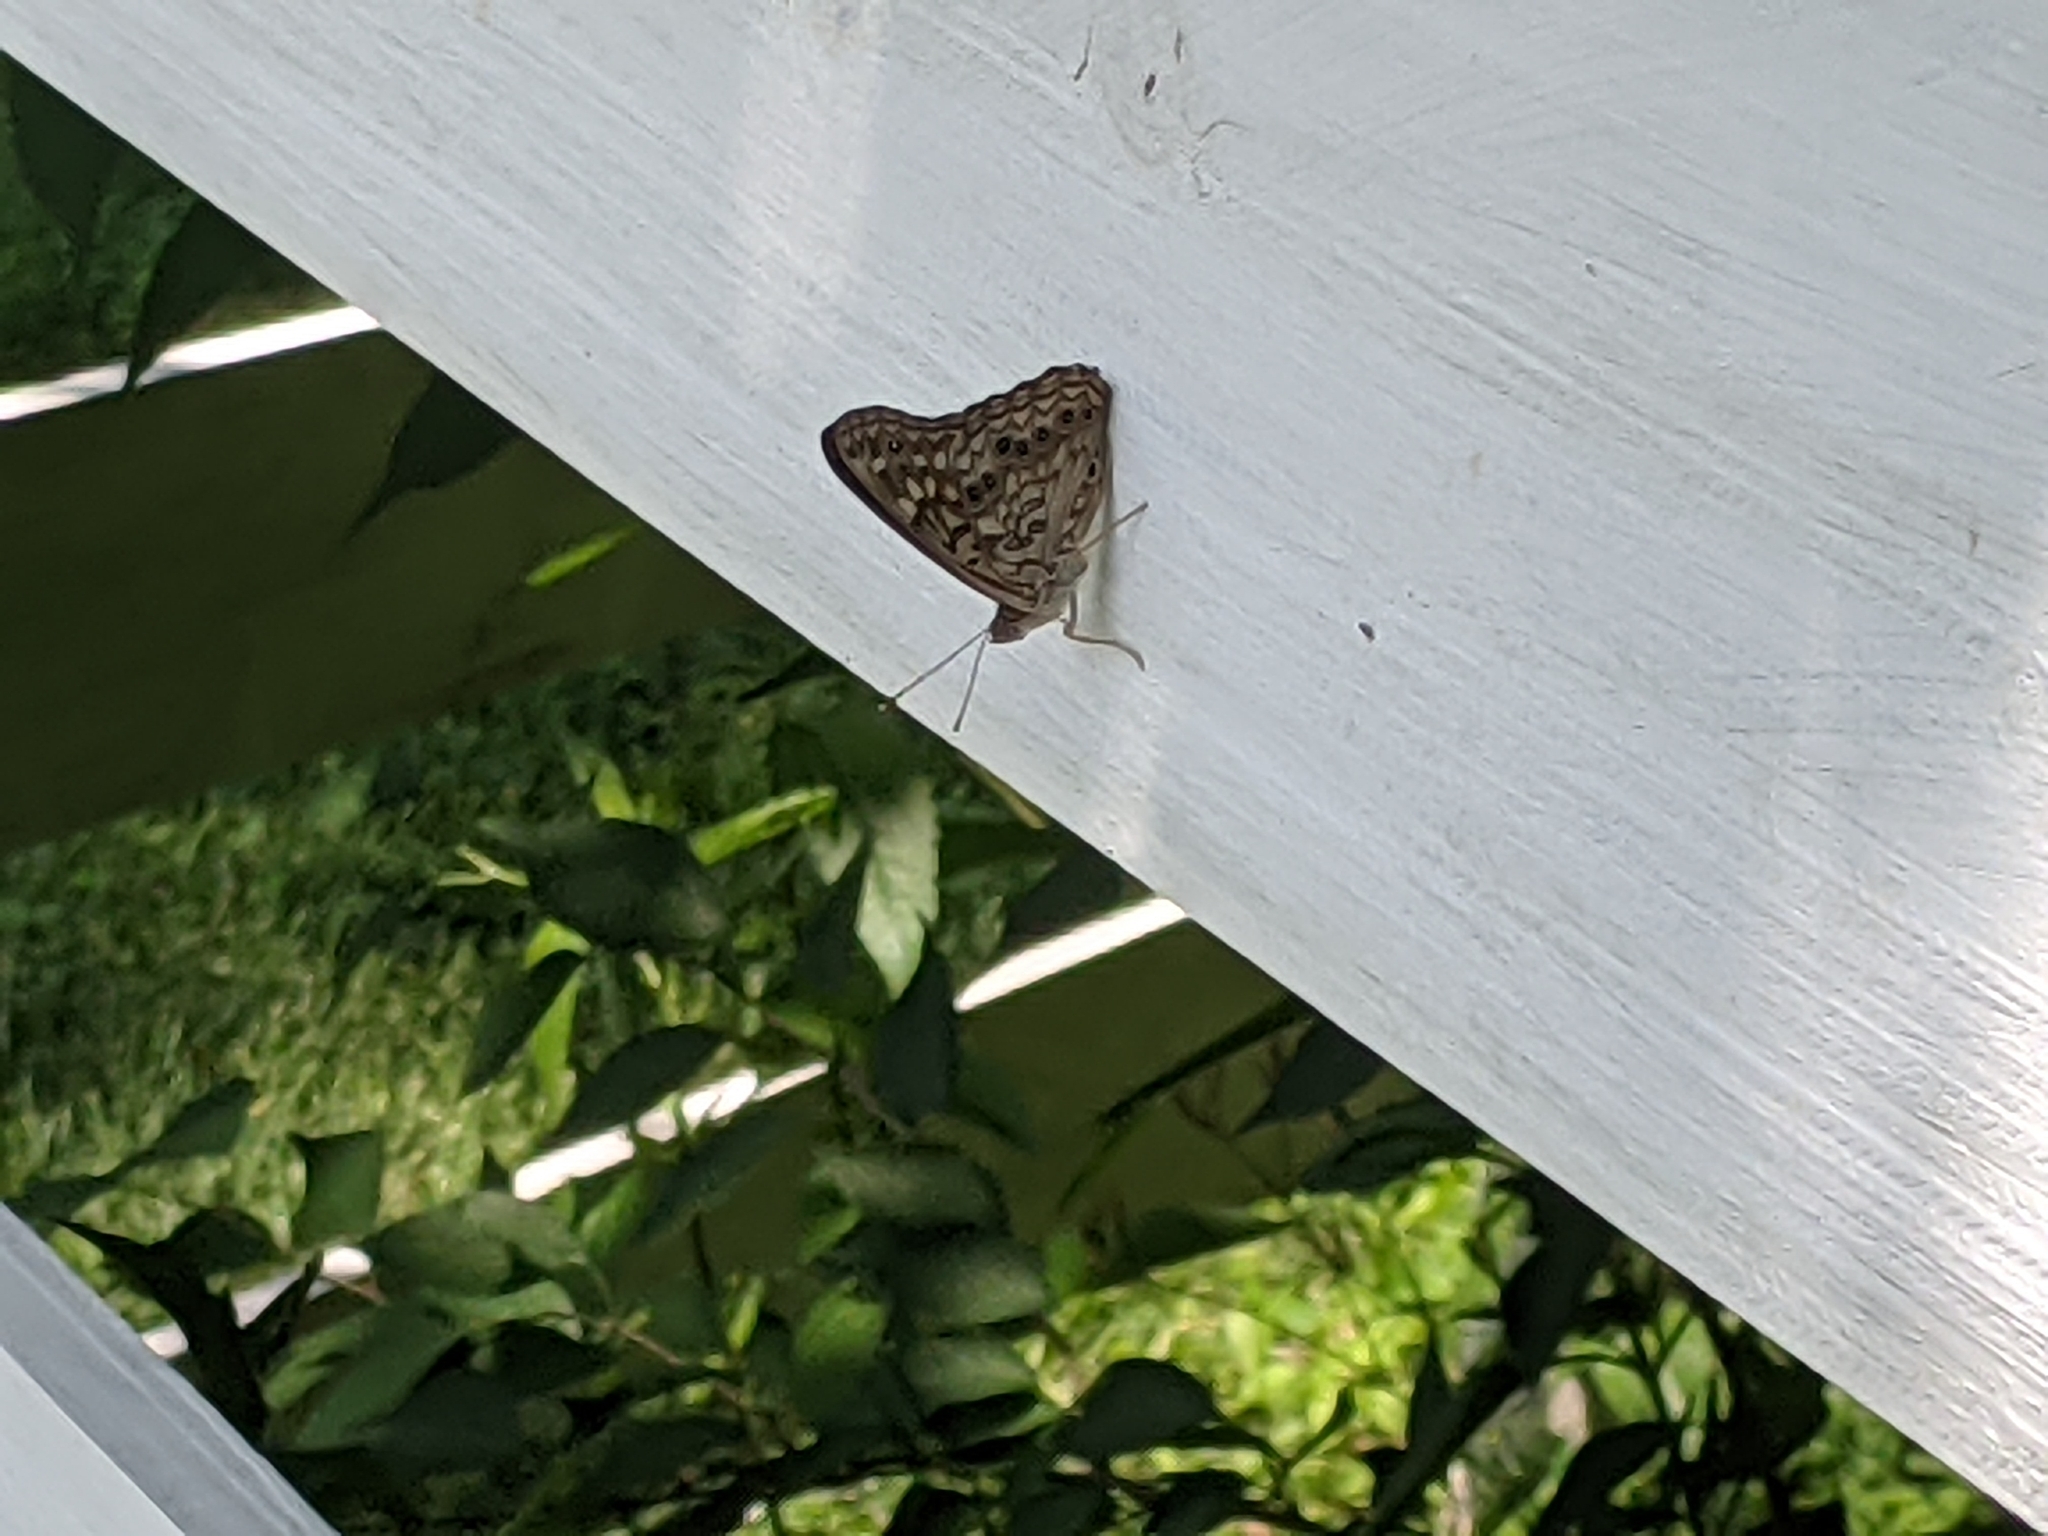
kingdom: Animalia
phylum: Arthropoda
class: Insecta
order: Lepidoptera
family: Nymphalidae
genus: Asterocampa
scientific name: Asterocampa celtis
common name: Hackberry emperor
